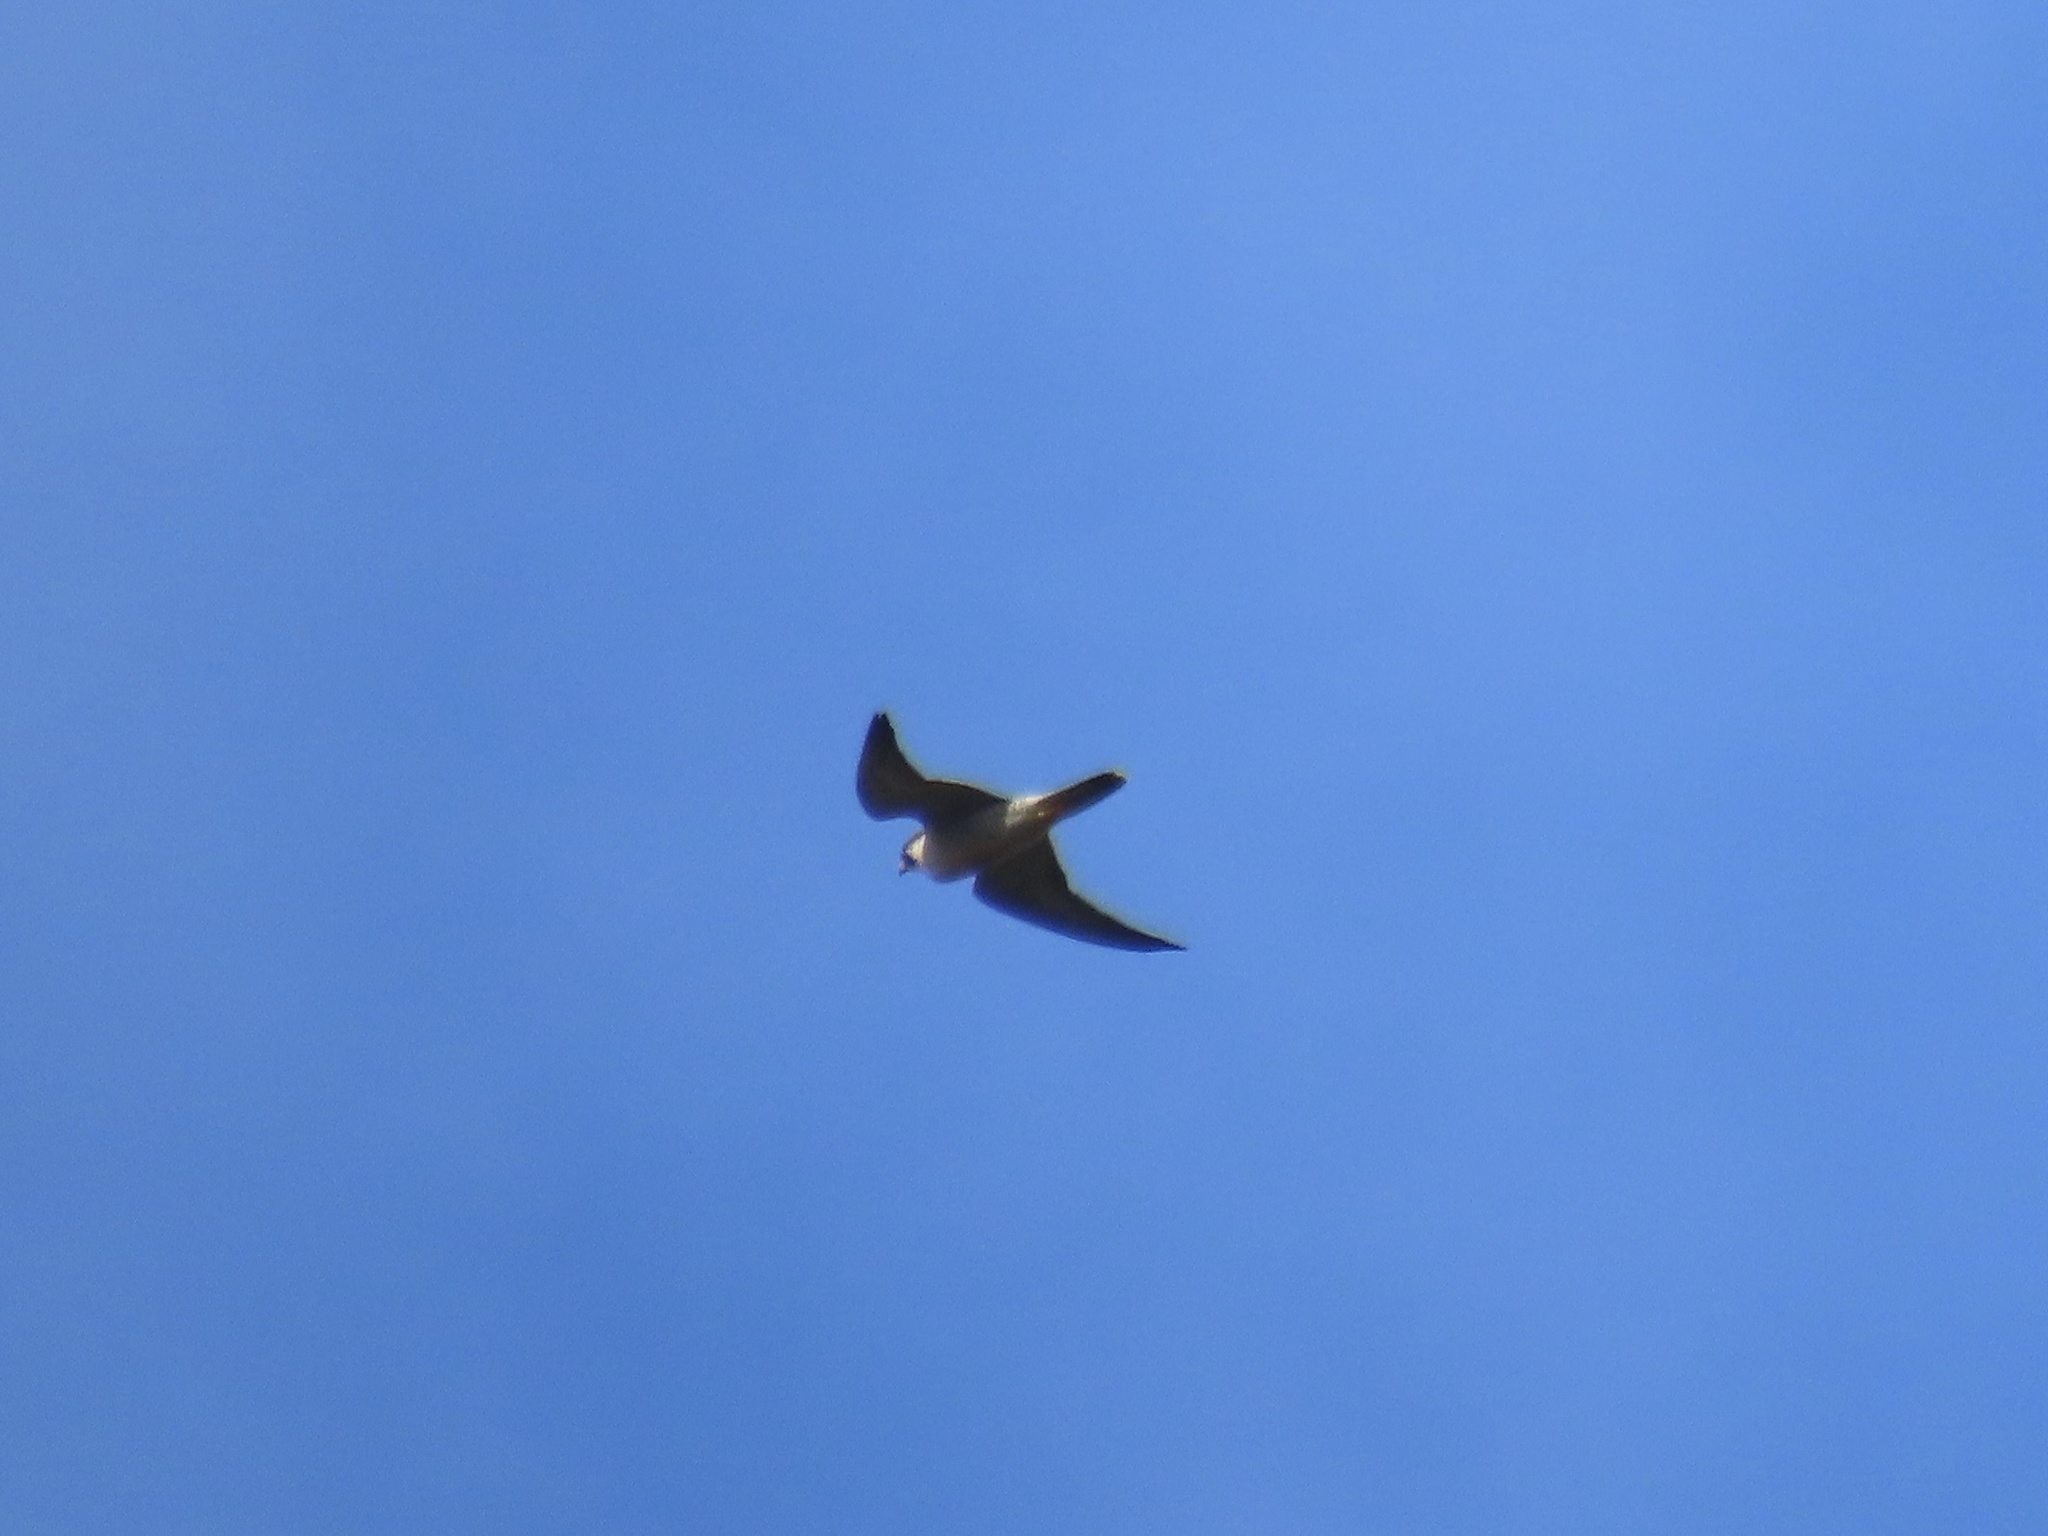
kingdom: Animalia
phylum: Chordata
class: Aves
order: Falconiformes
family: Falconidae
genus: Falco
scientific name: Falco peregrinus
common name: Peregrine falcon
